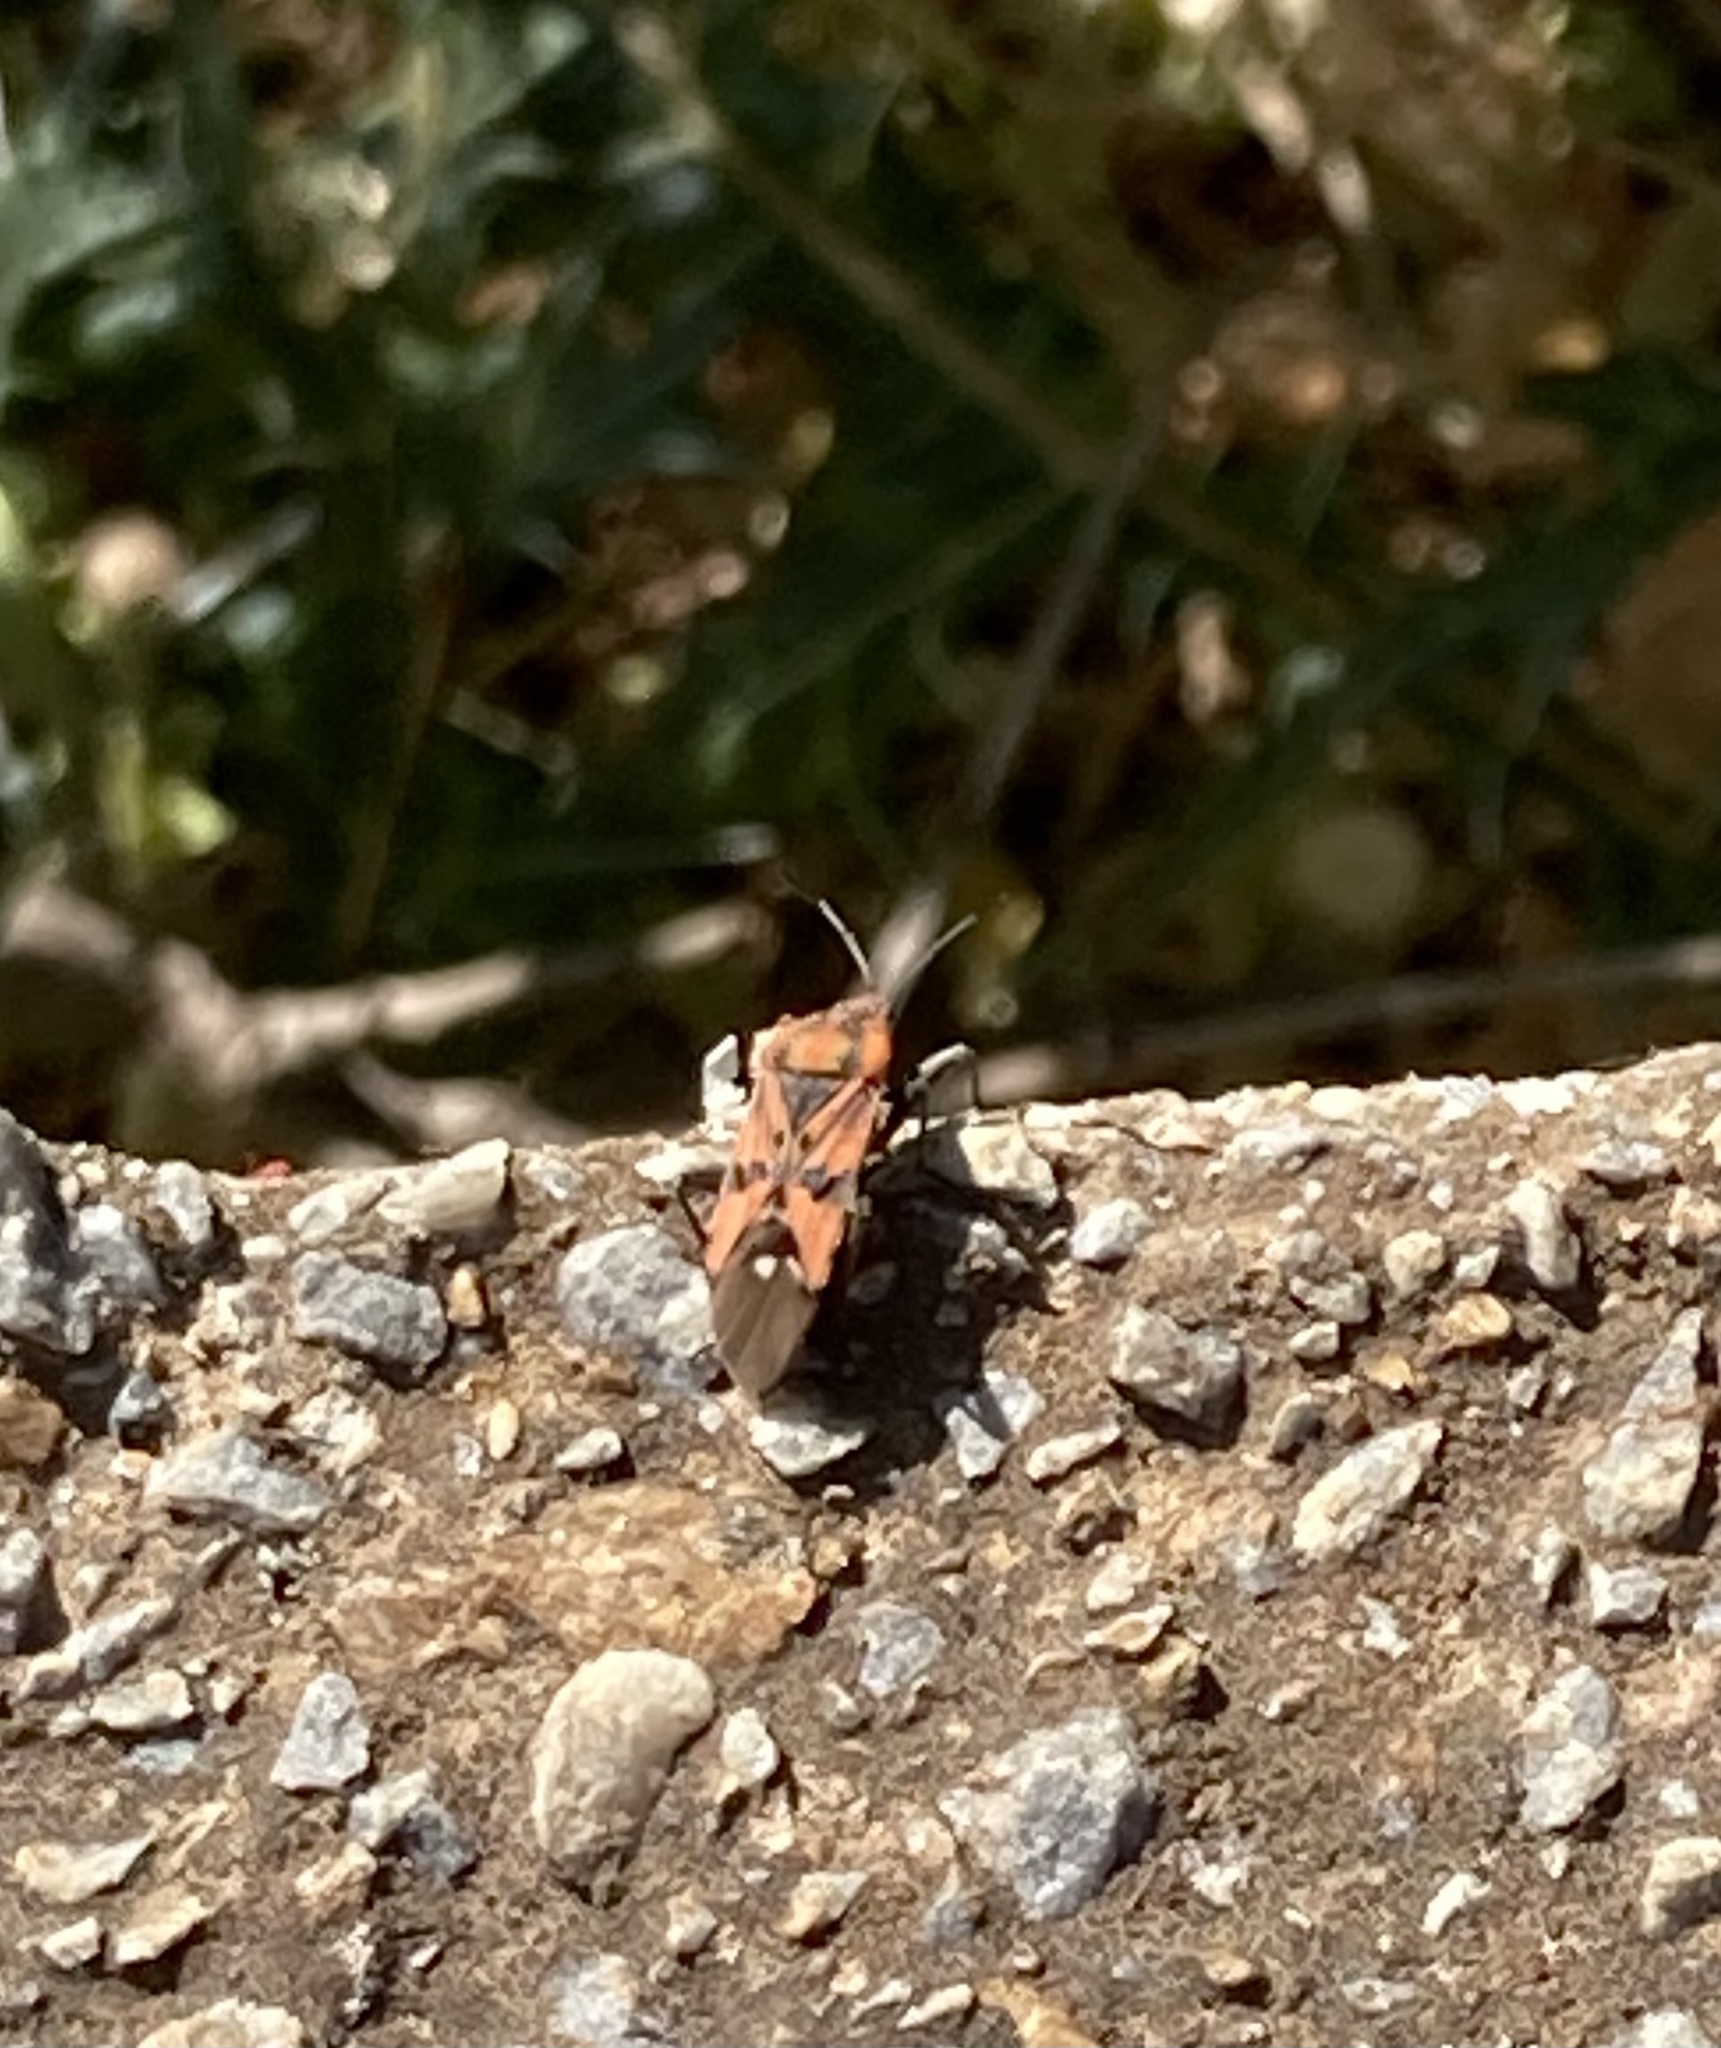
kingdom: Animalia
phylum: Arthropoda
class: Insecta
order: Hemiptera
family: Lygaeidae
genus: Spilostethus
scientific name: Spilostethus pandurus
